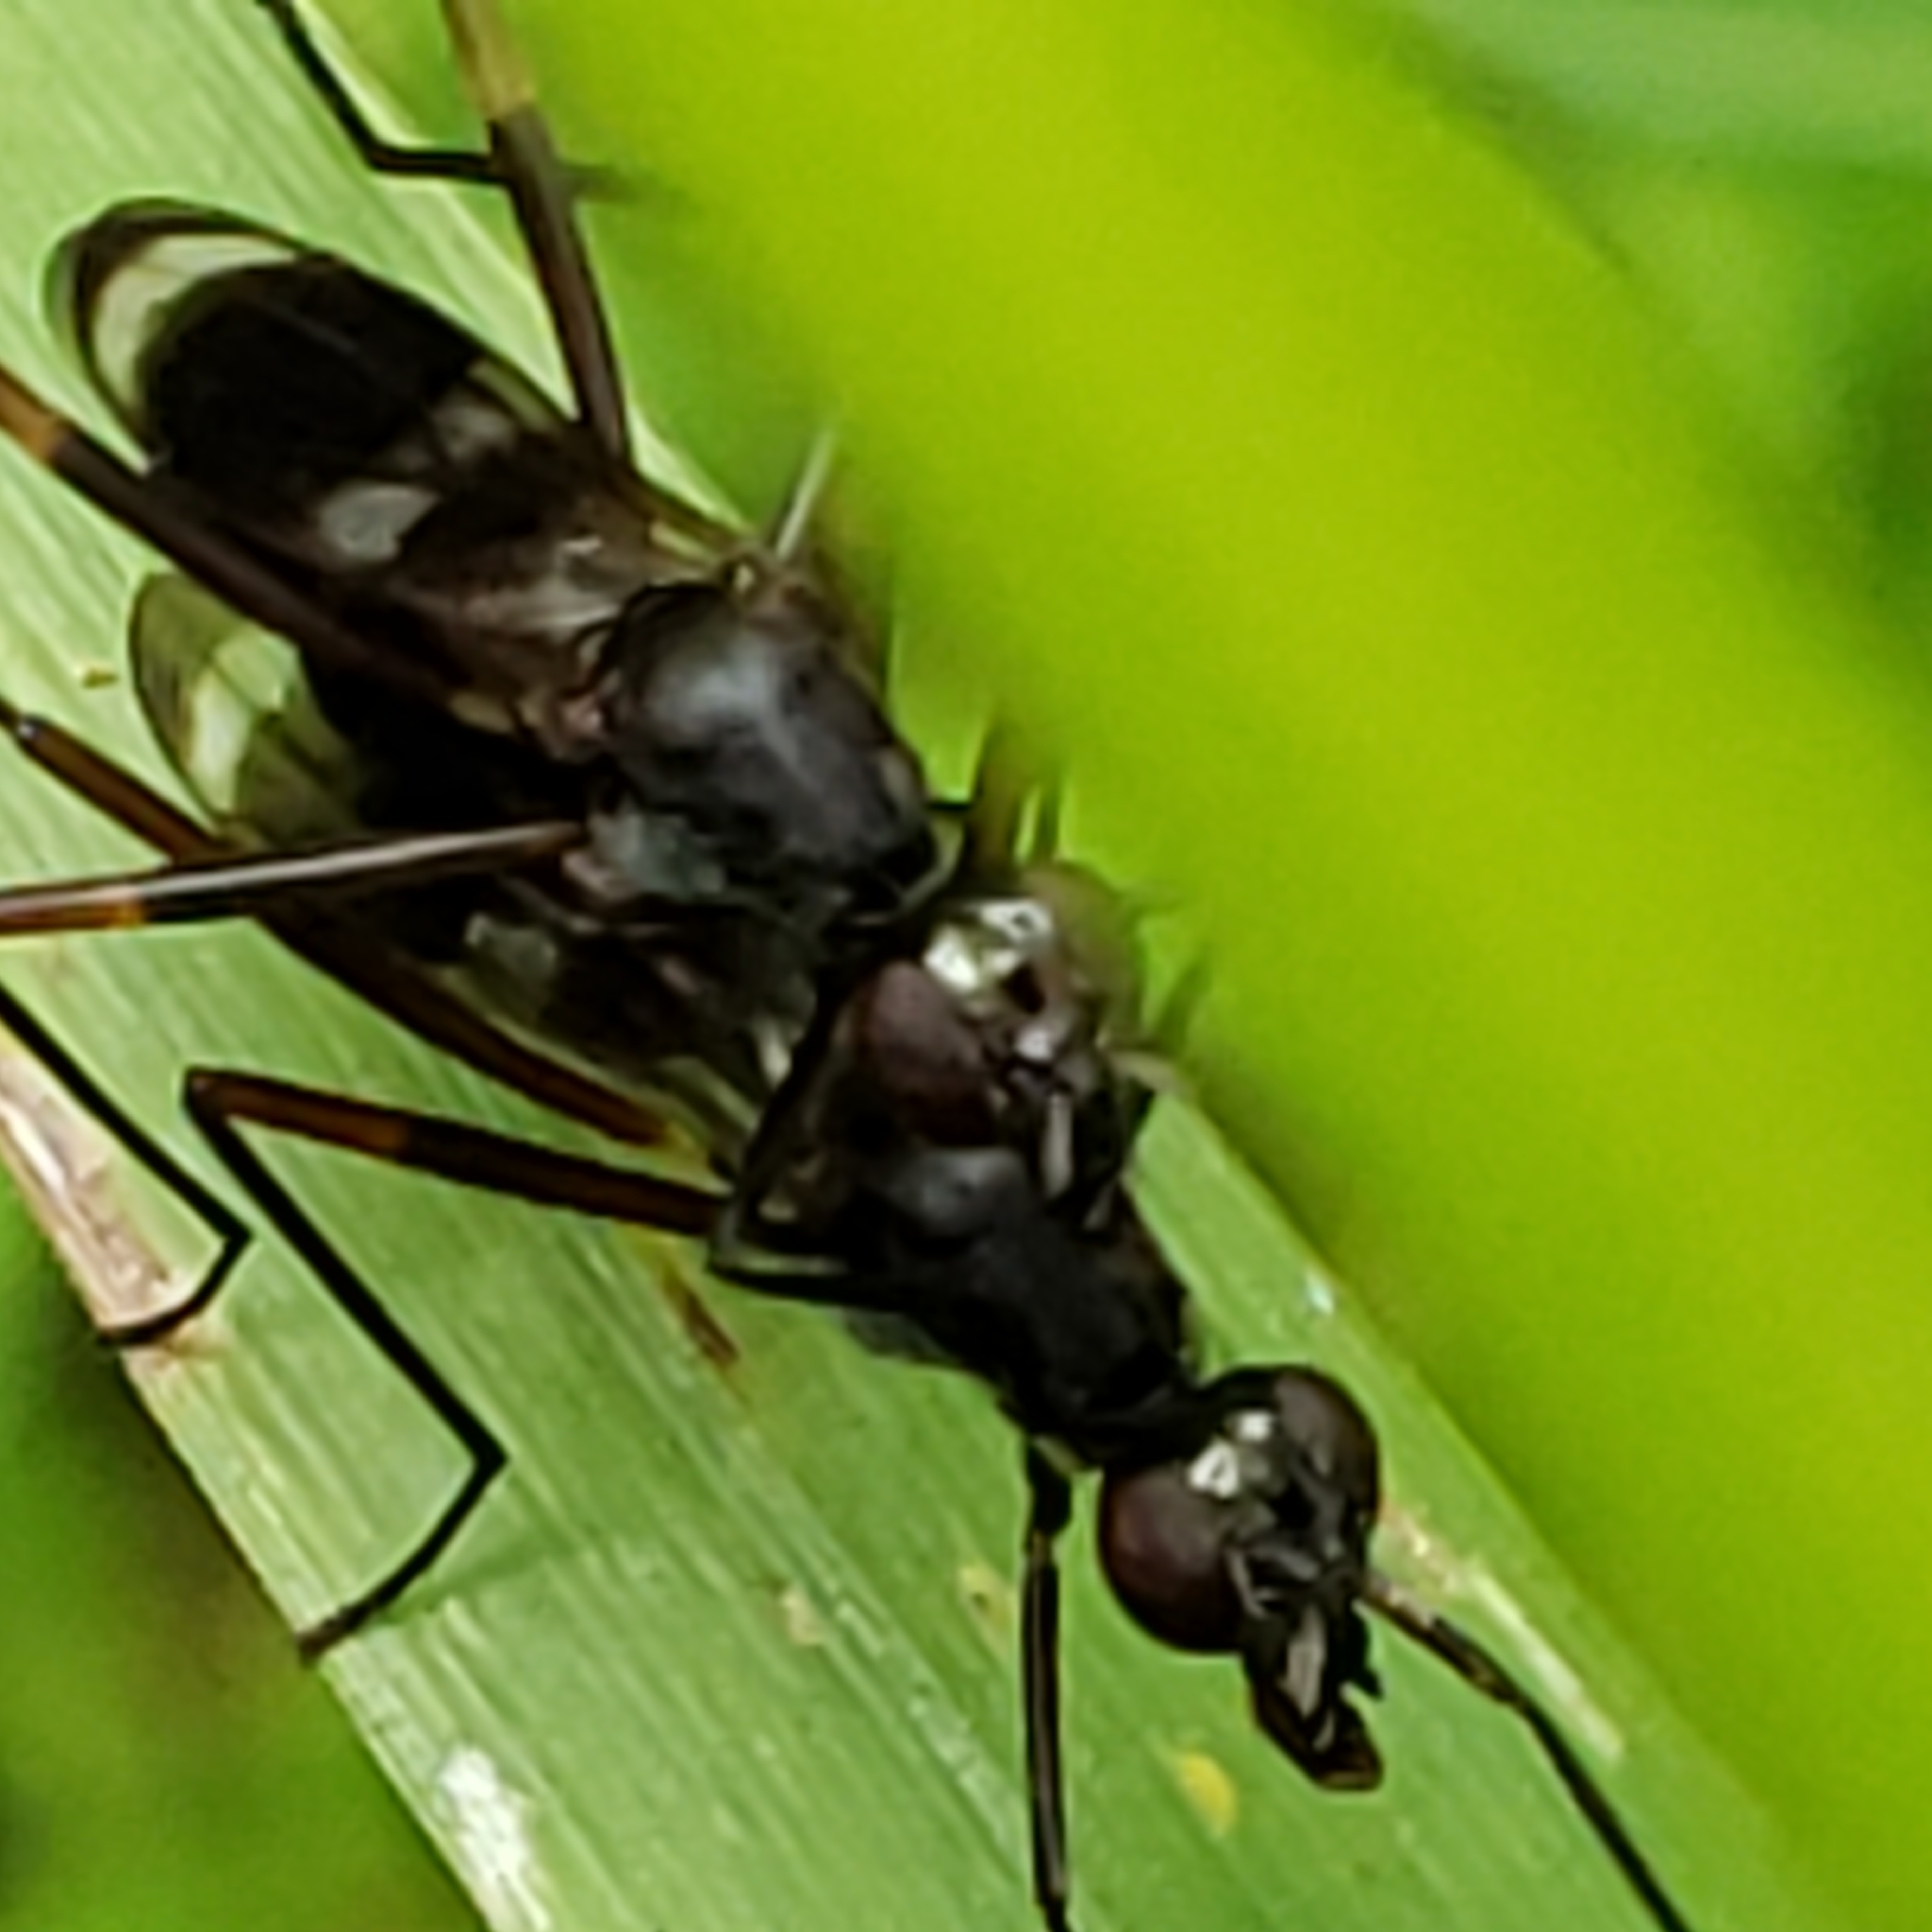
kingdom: Animalia
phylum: Arthropoda
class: Insecta
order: Diptera
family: Micropezidae
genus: Taeniaptera
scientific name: Taeniaptera trivittata
